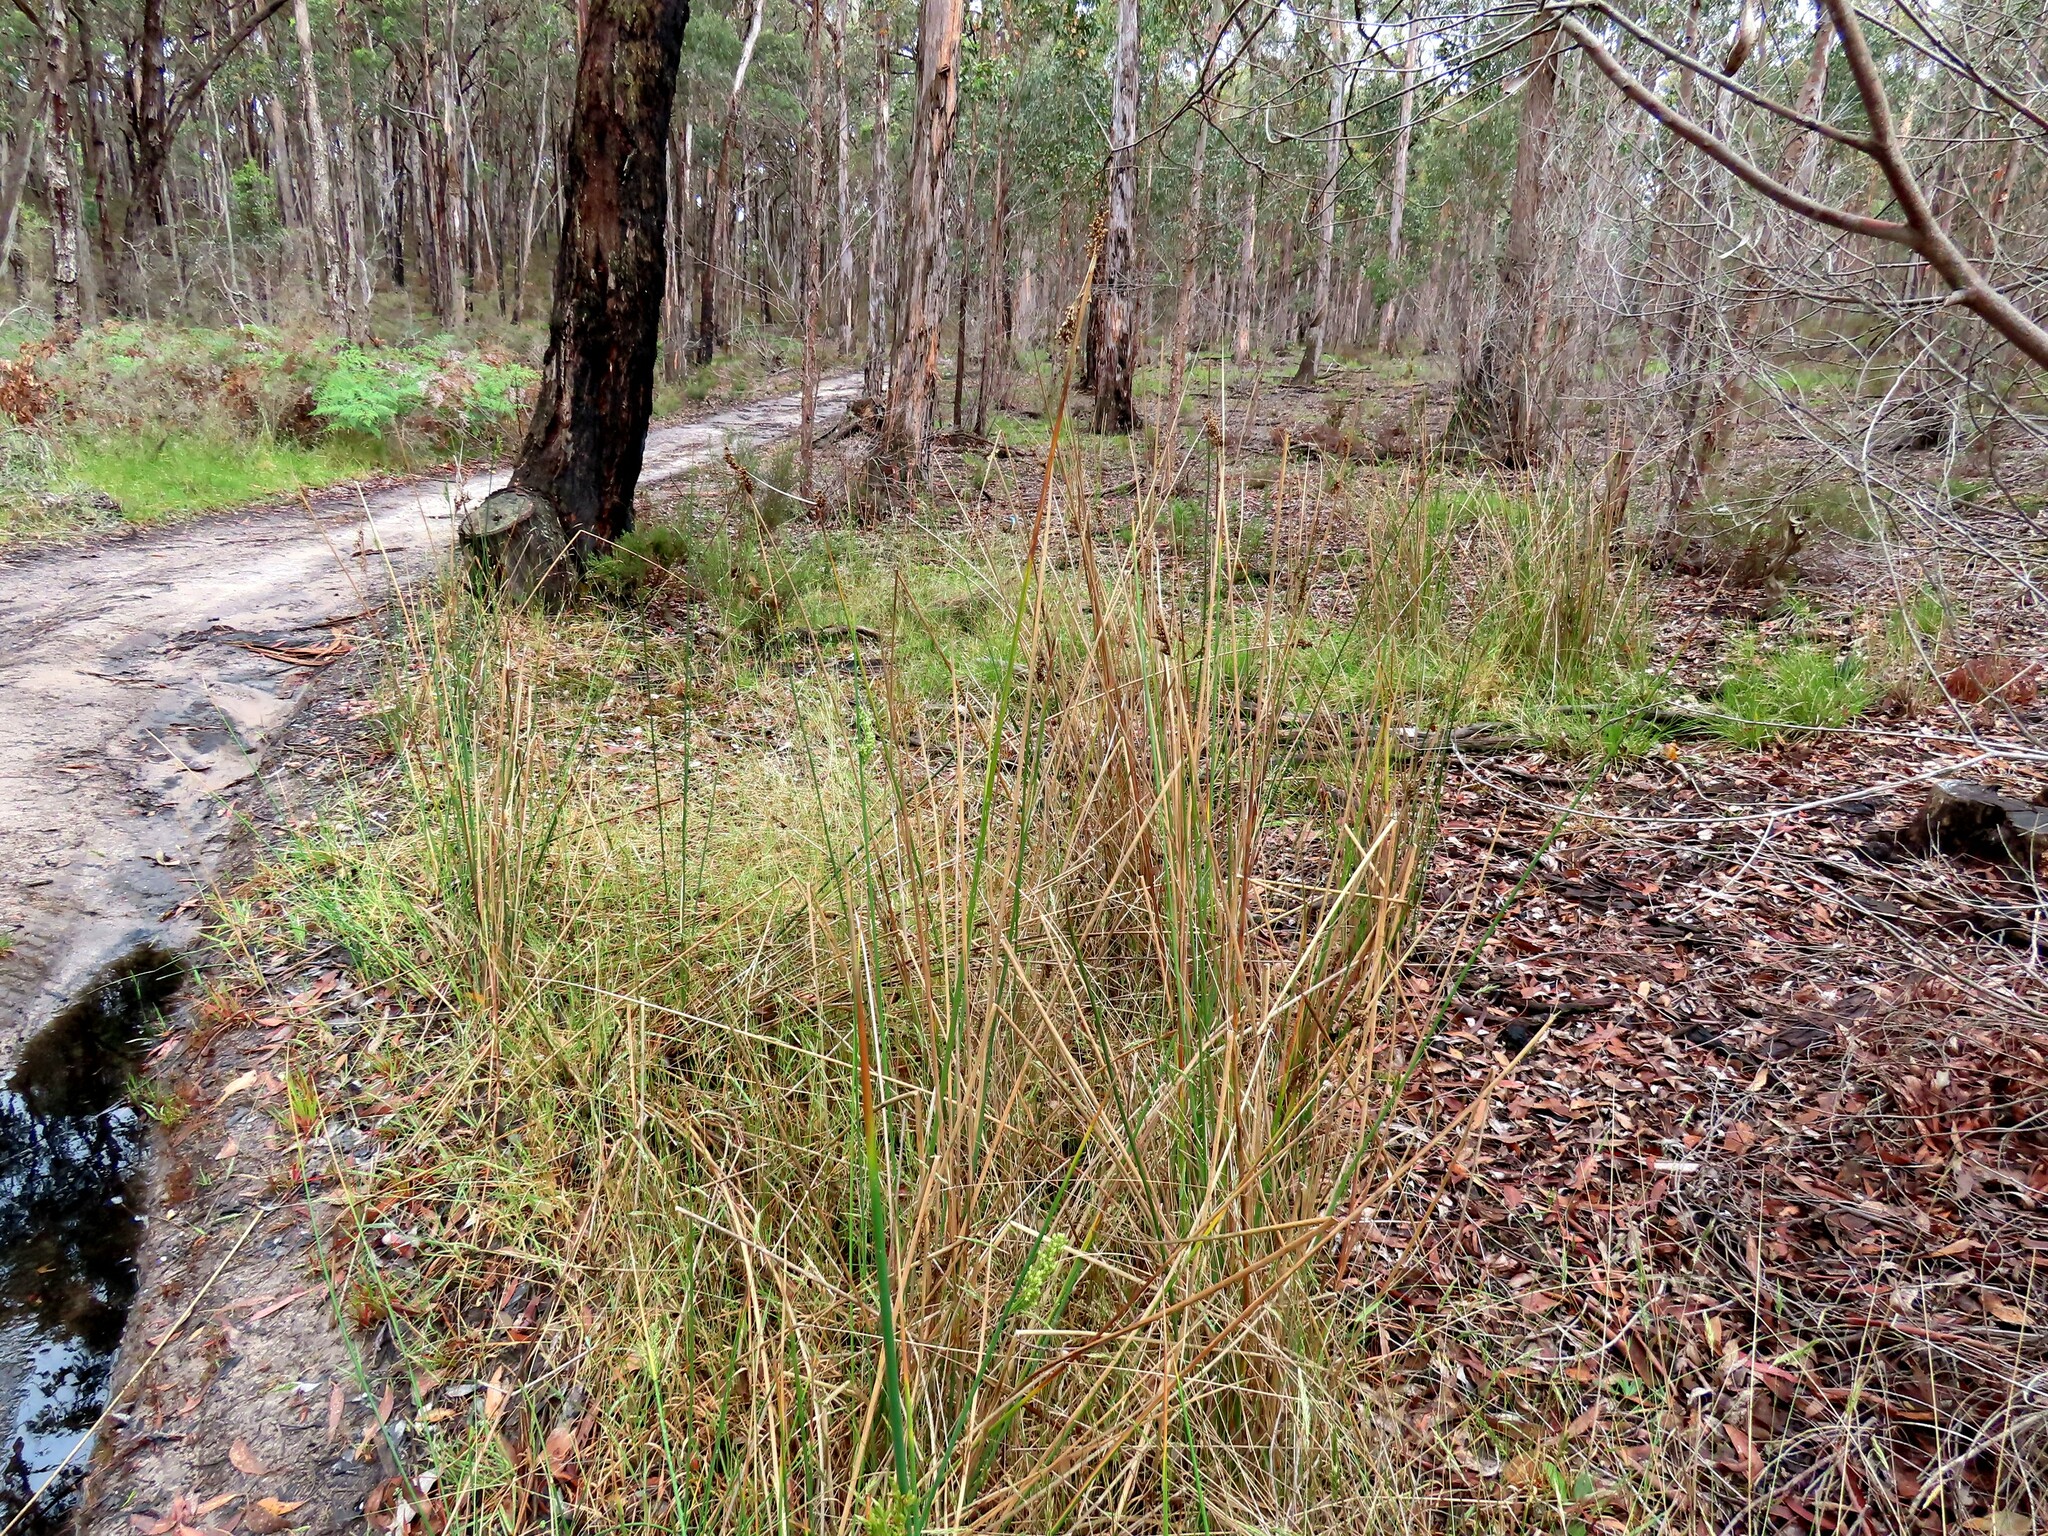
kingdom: Plantae
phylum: Tracheophyta
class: Liliopsida
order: Poales
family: Juncaceae
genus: Juncus
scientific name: Juncus pallidus
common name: Great soft-rush
